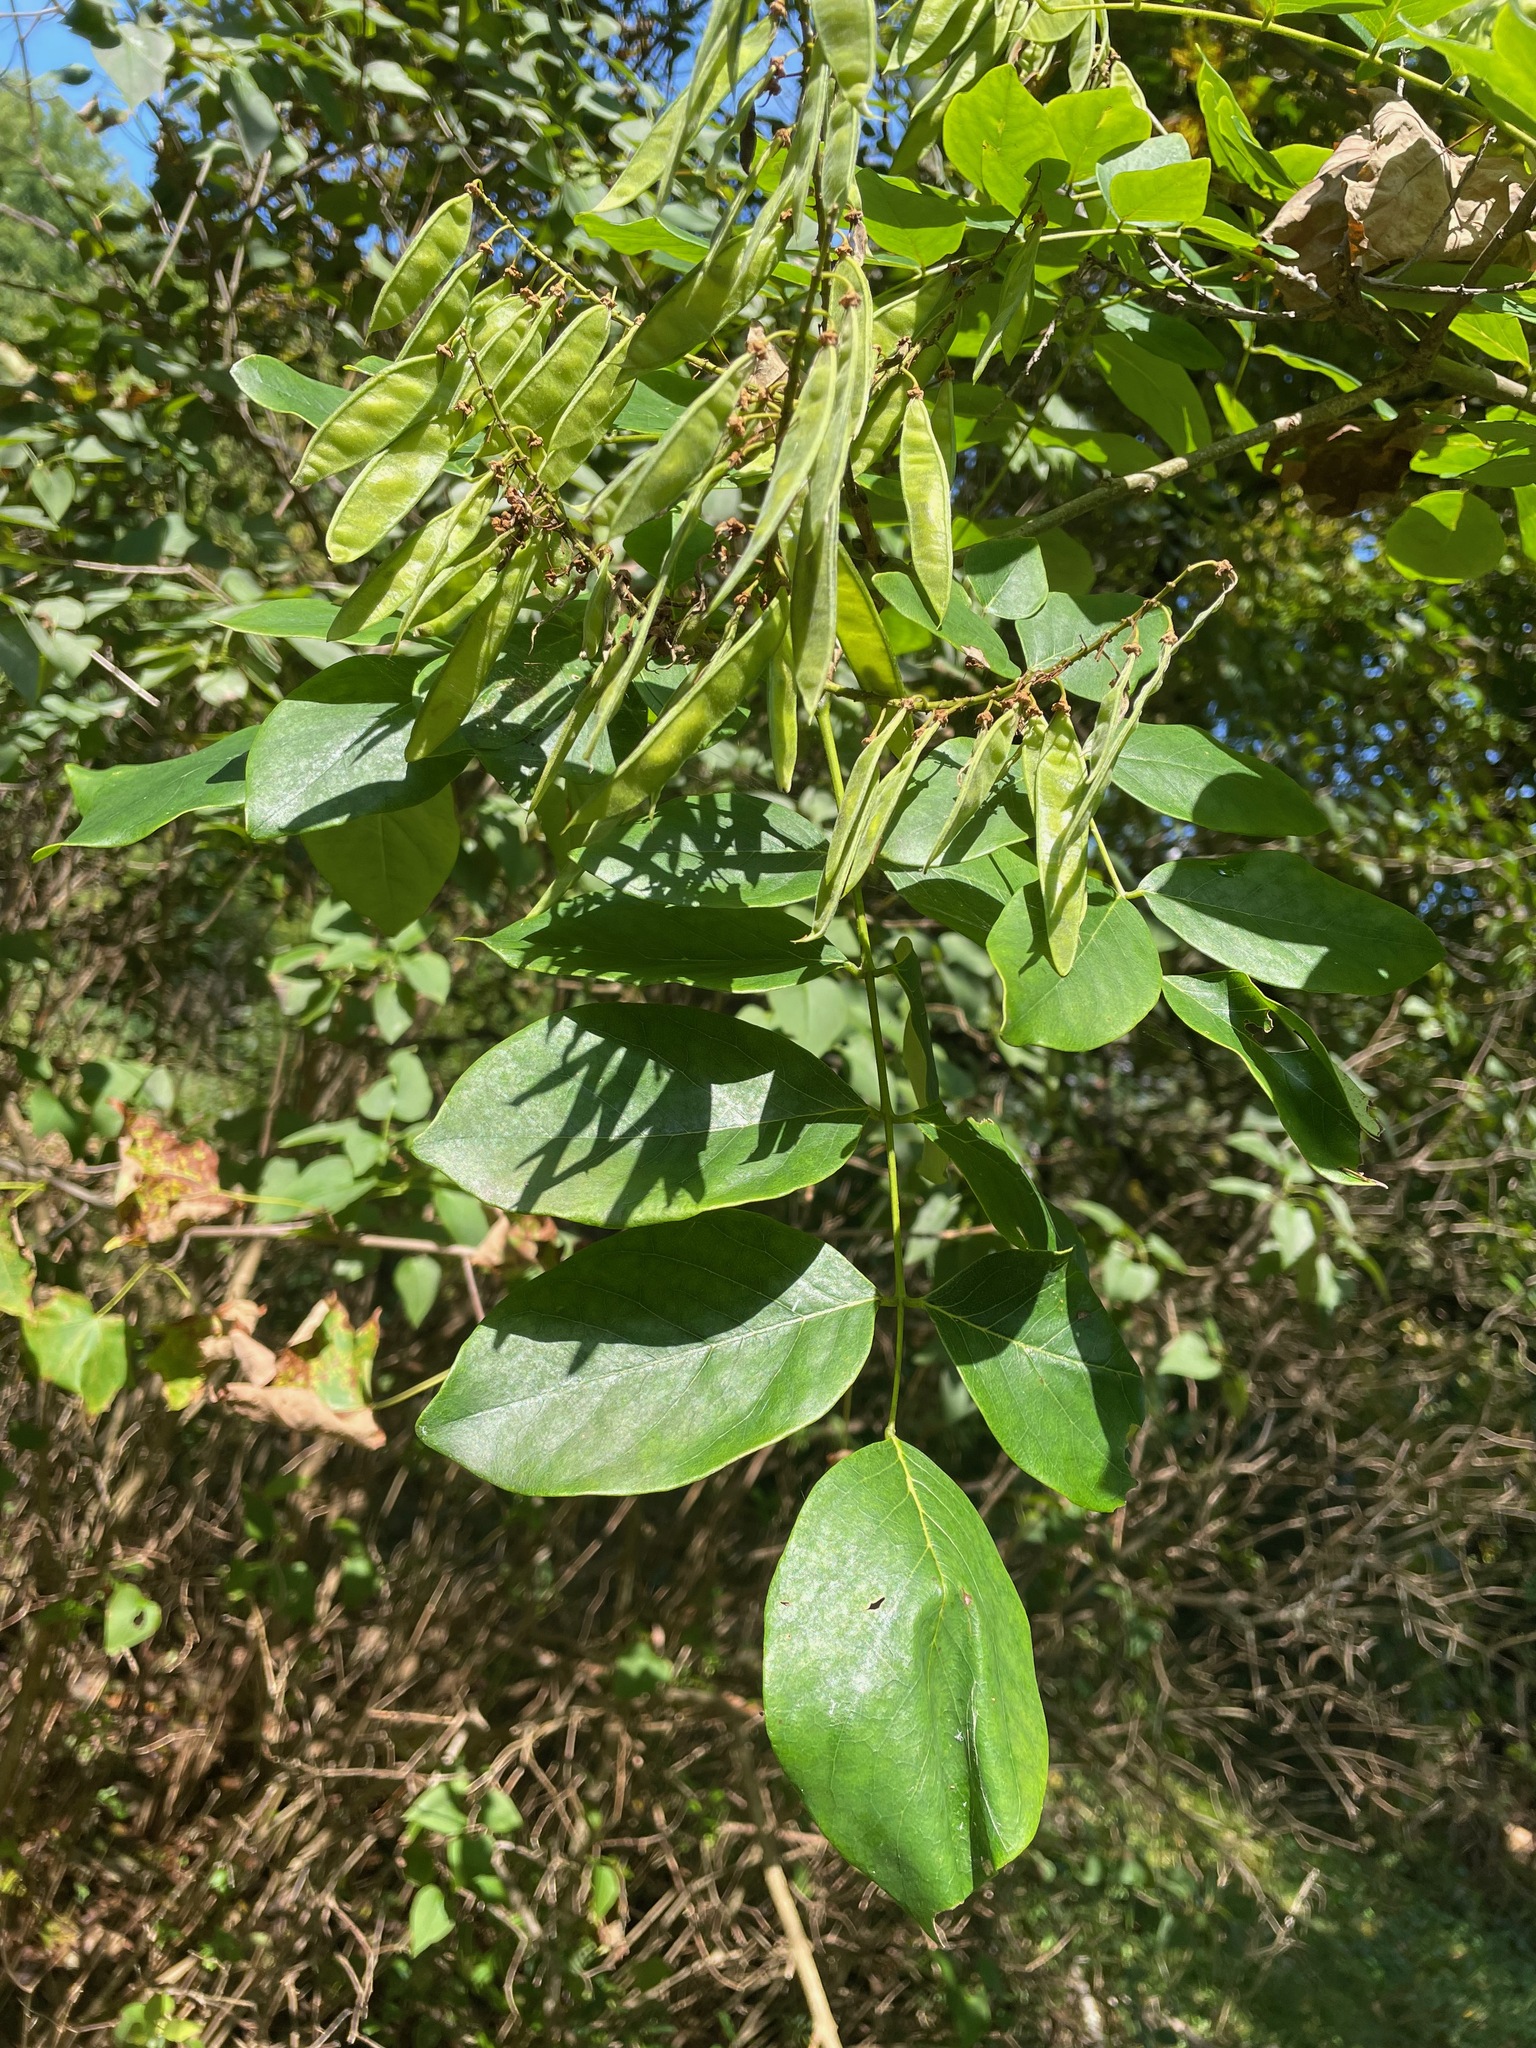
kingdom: Plantae
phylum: Tracheophyta
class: Magnoliopsida
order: Fabales
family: Fabaceae
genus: Maackia
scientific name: Maackia amurensis
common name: Amur maackia
